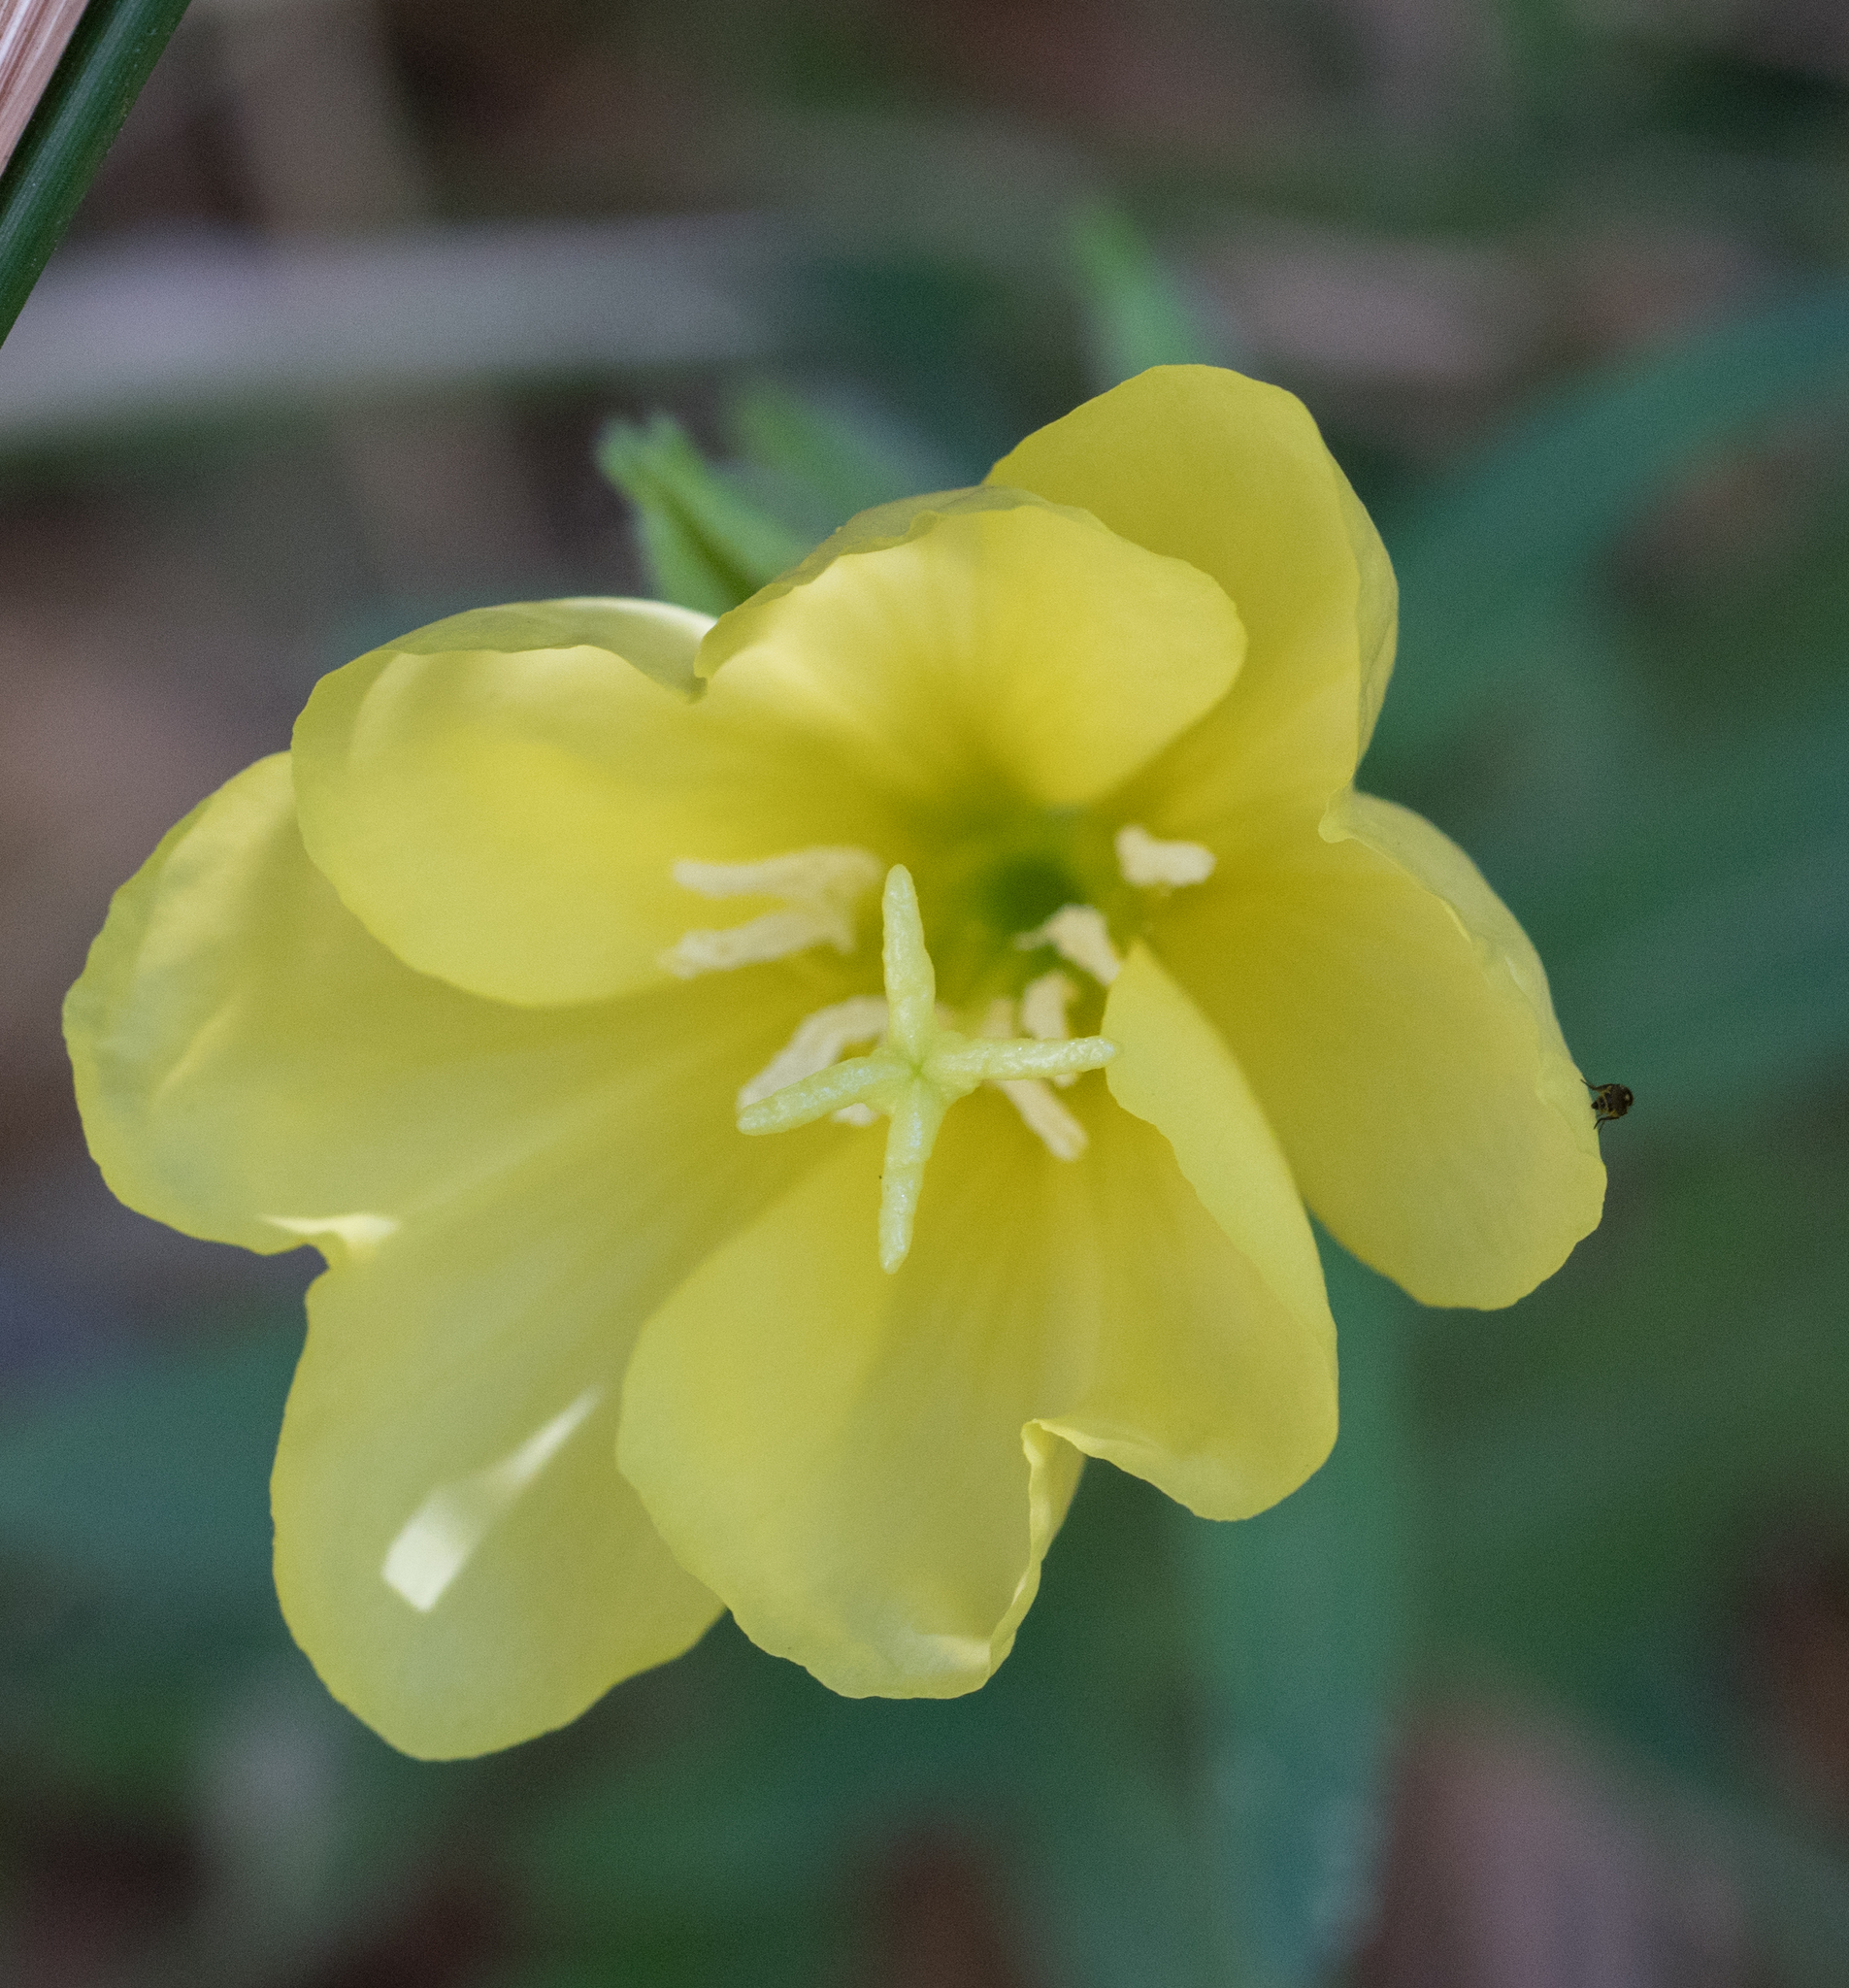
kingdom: Plantae
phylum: Tracheophyta
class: Magnoliopsida
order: Myrtales
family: Onagraceae
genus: Oenothera
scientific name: Oenothera elata
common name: Hooker's evening-primrose
